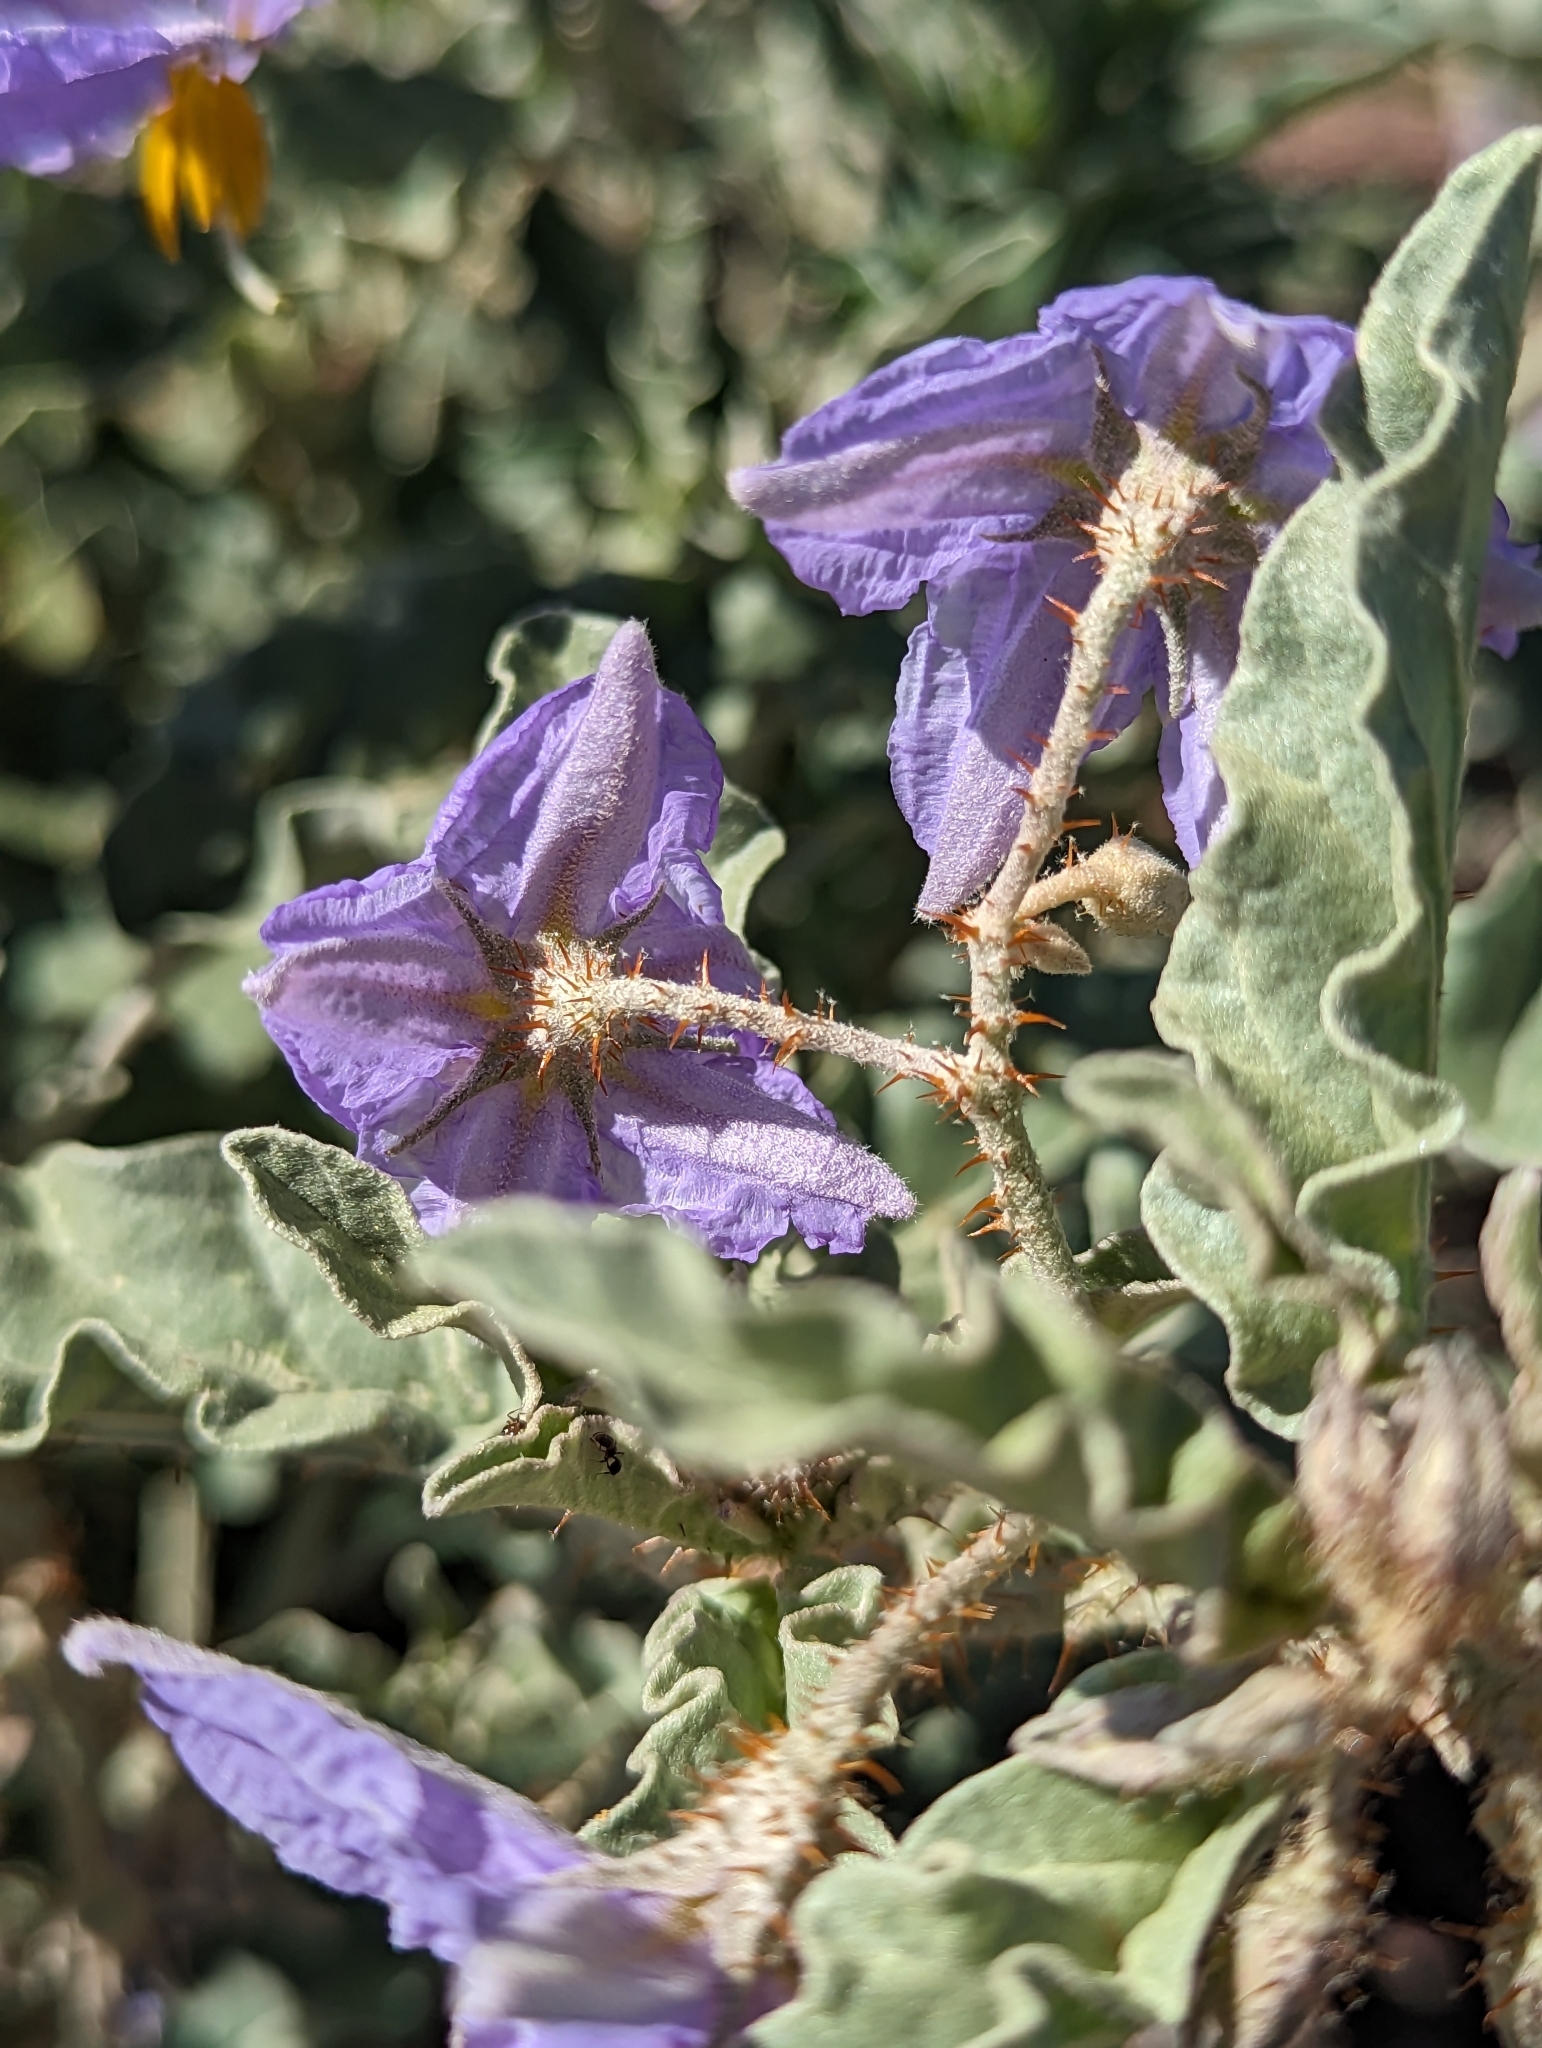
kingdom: Plantae
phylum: Tracheophyta
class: Magnoliopsida
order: Solanales
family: Solanaceae
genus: Solanum
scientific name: Solanum elaeagnifolium
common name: Silverleaf nightshade
